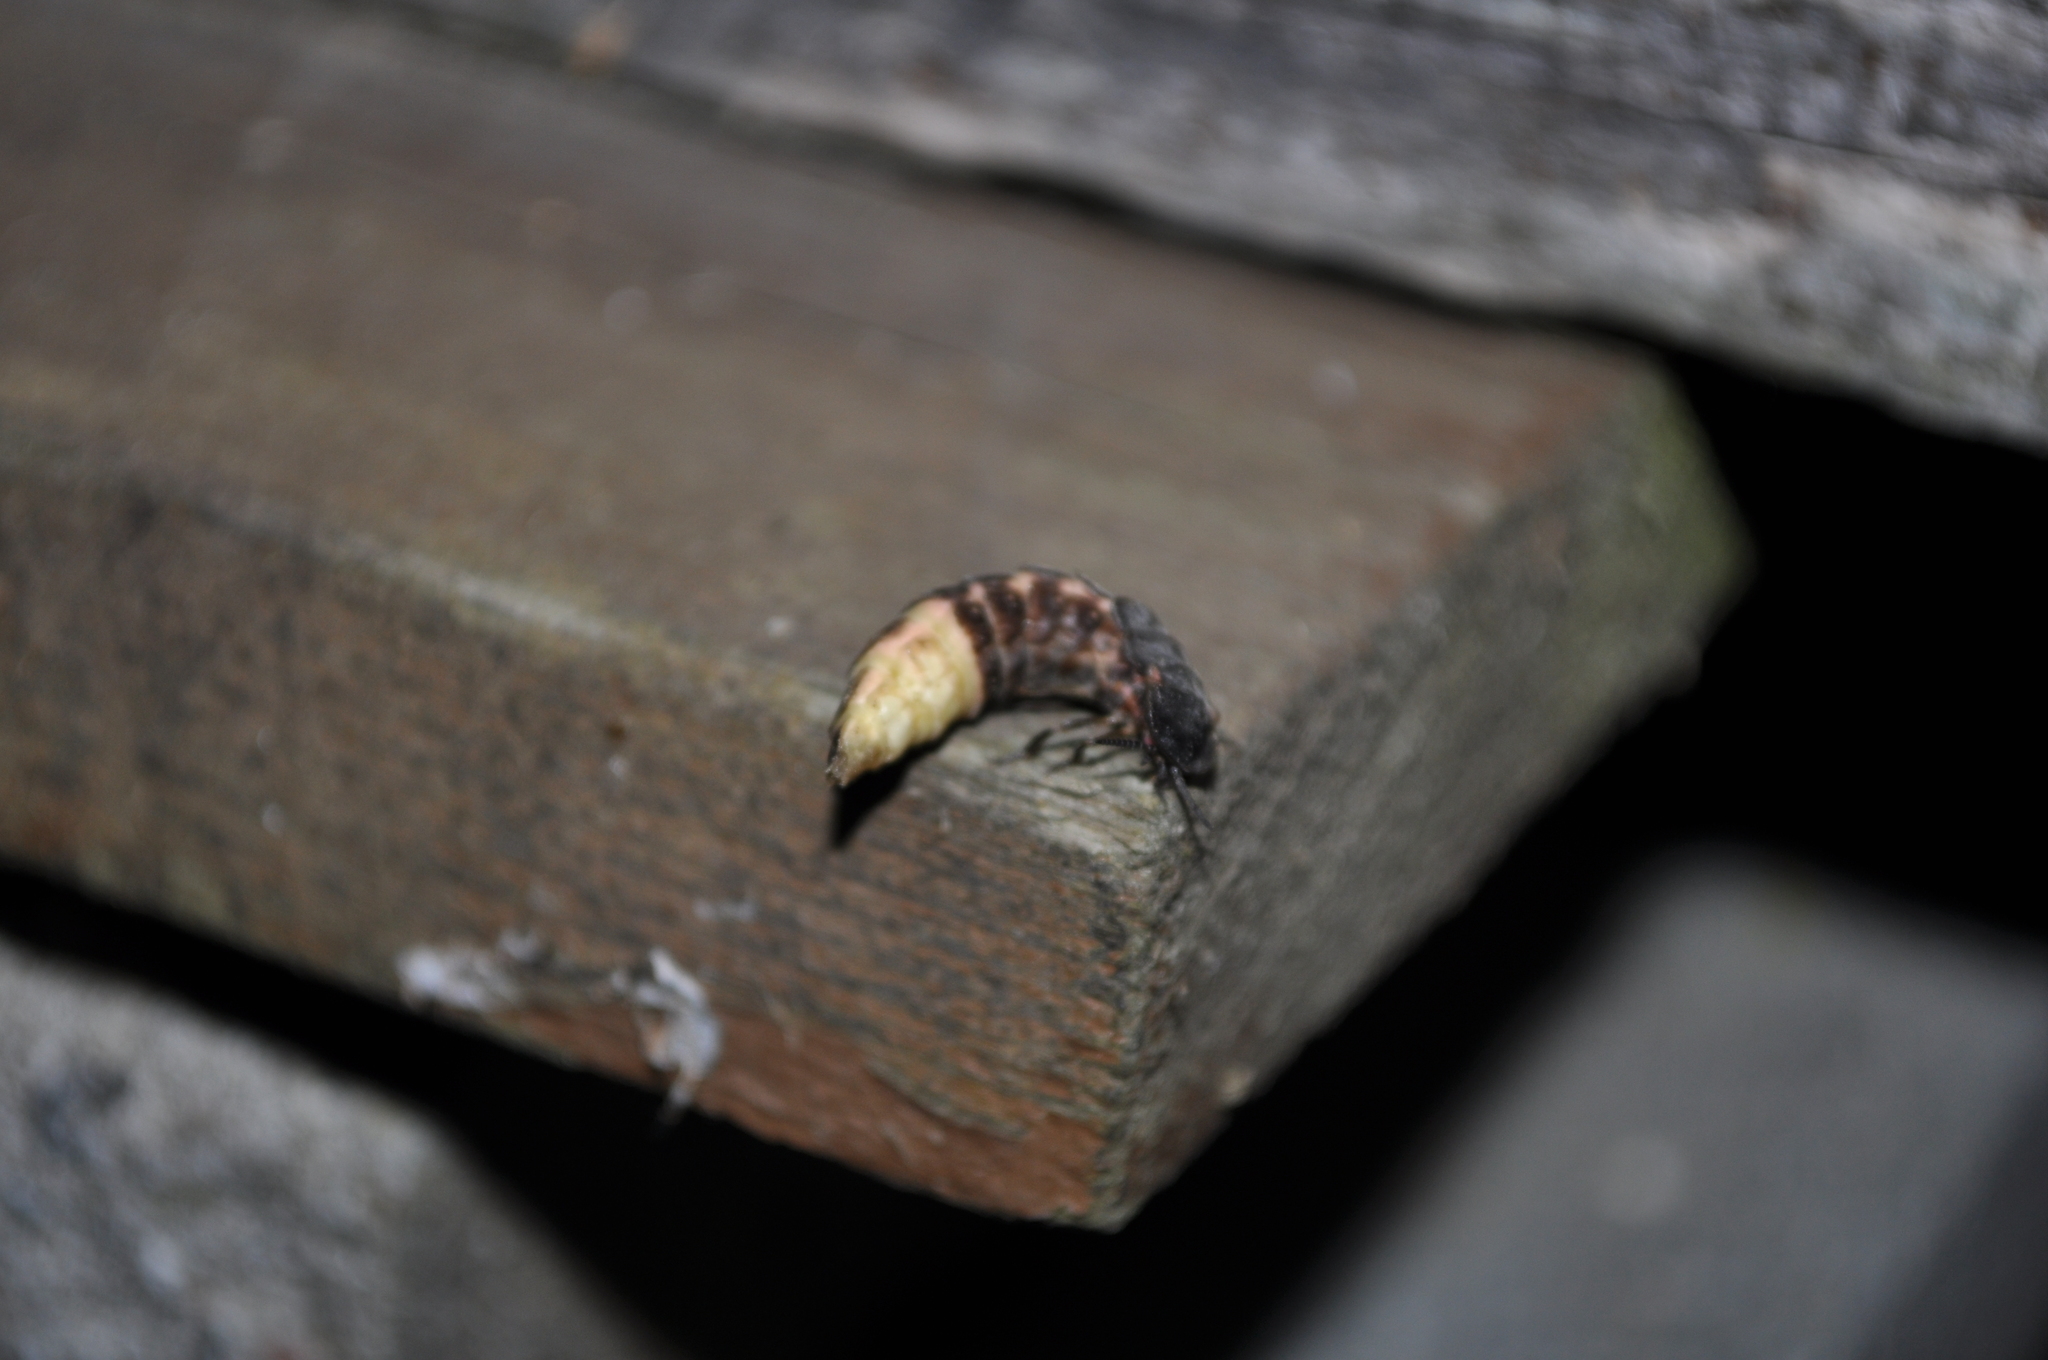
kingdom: Animalia
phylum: Arthropoda
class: Insecta
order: Coleoptera
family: Lampyridae
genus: Lampyris
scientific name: Lampyris noctiluca
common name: Glow-worm
